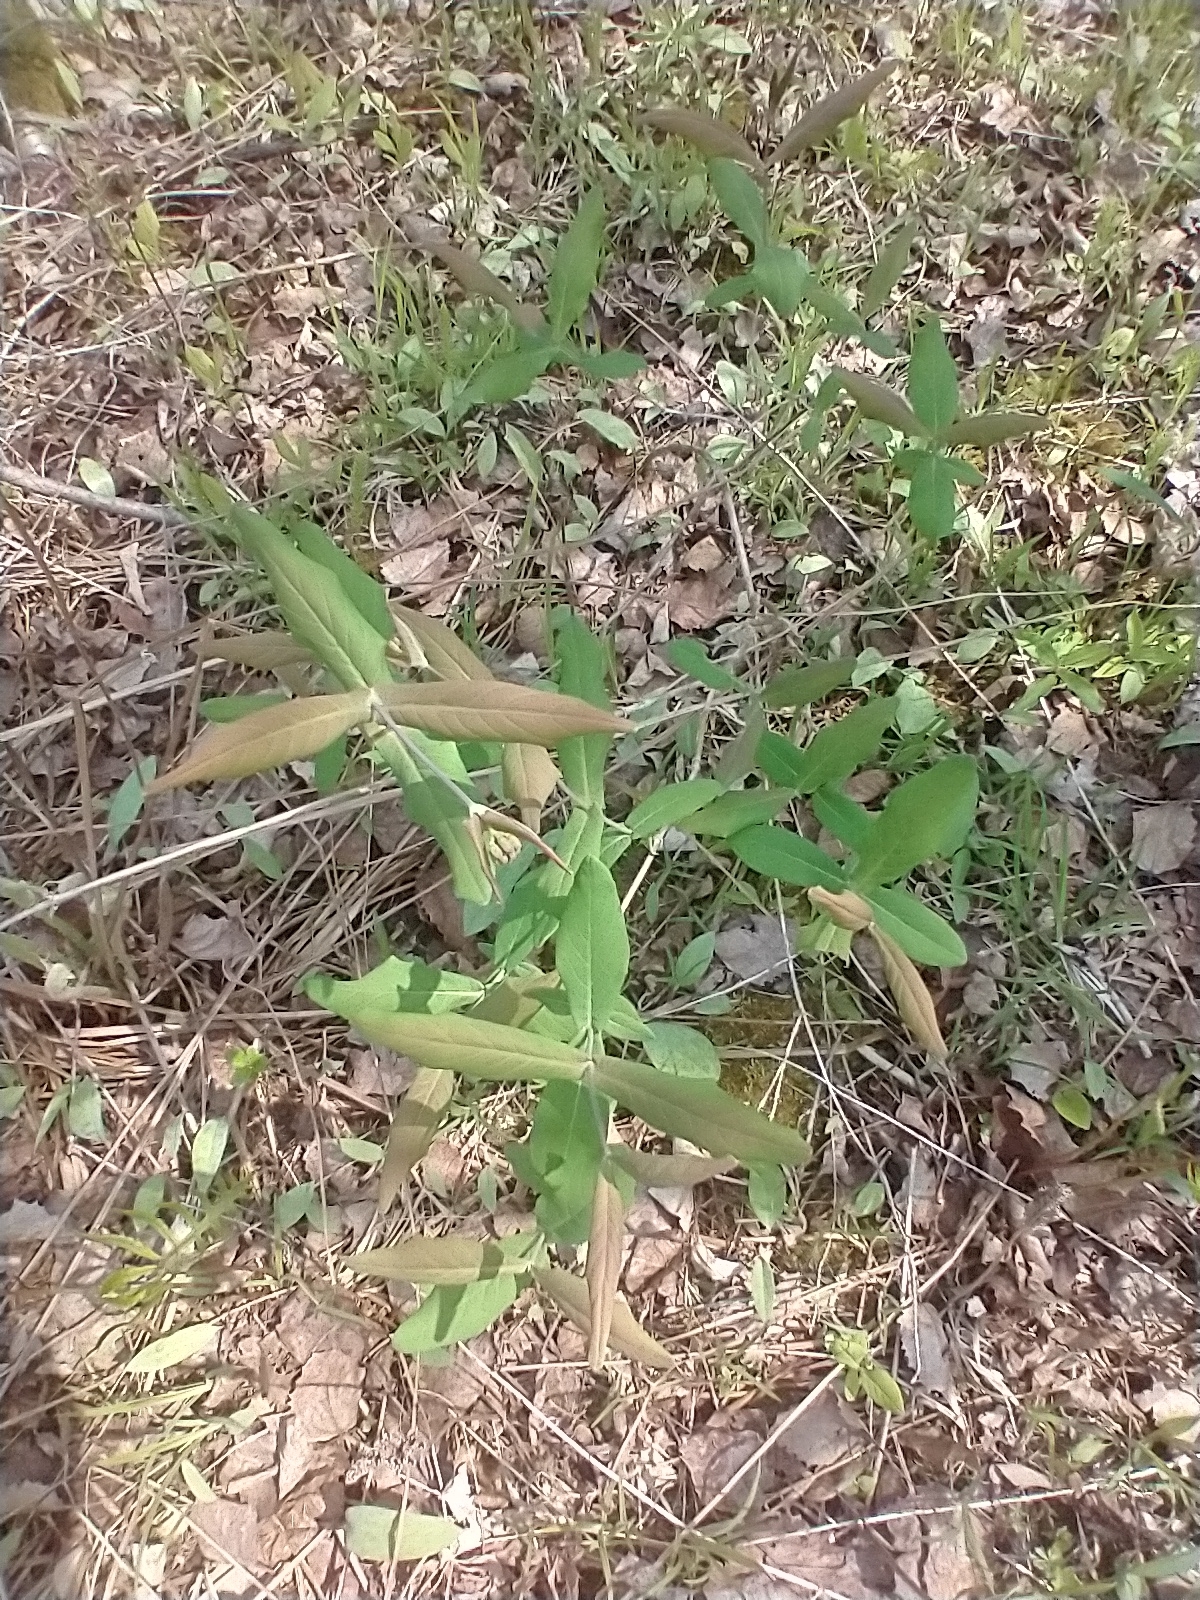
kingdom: Plantae
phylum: Tracheophyta
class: Magnoliopsida
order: Dipsacales
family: Caprifoliaceae
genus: Lonicera
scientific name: Lonicera dioica
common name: Limber honeysuckle
